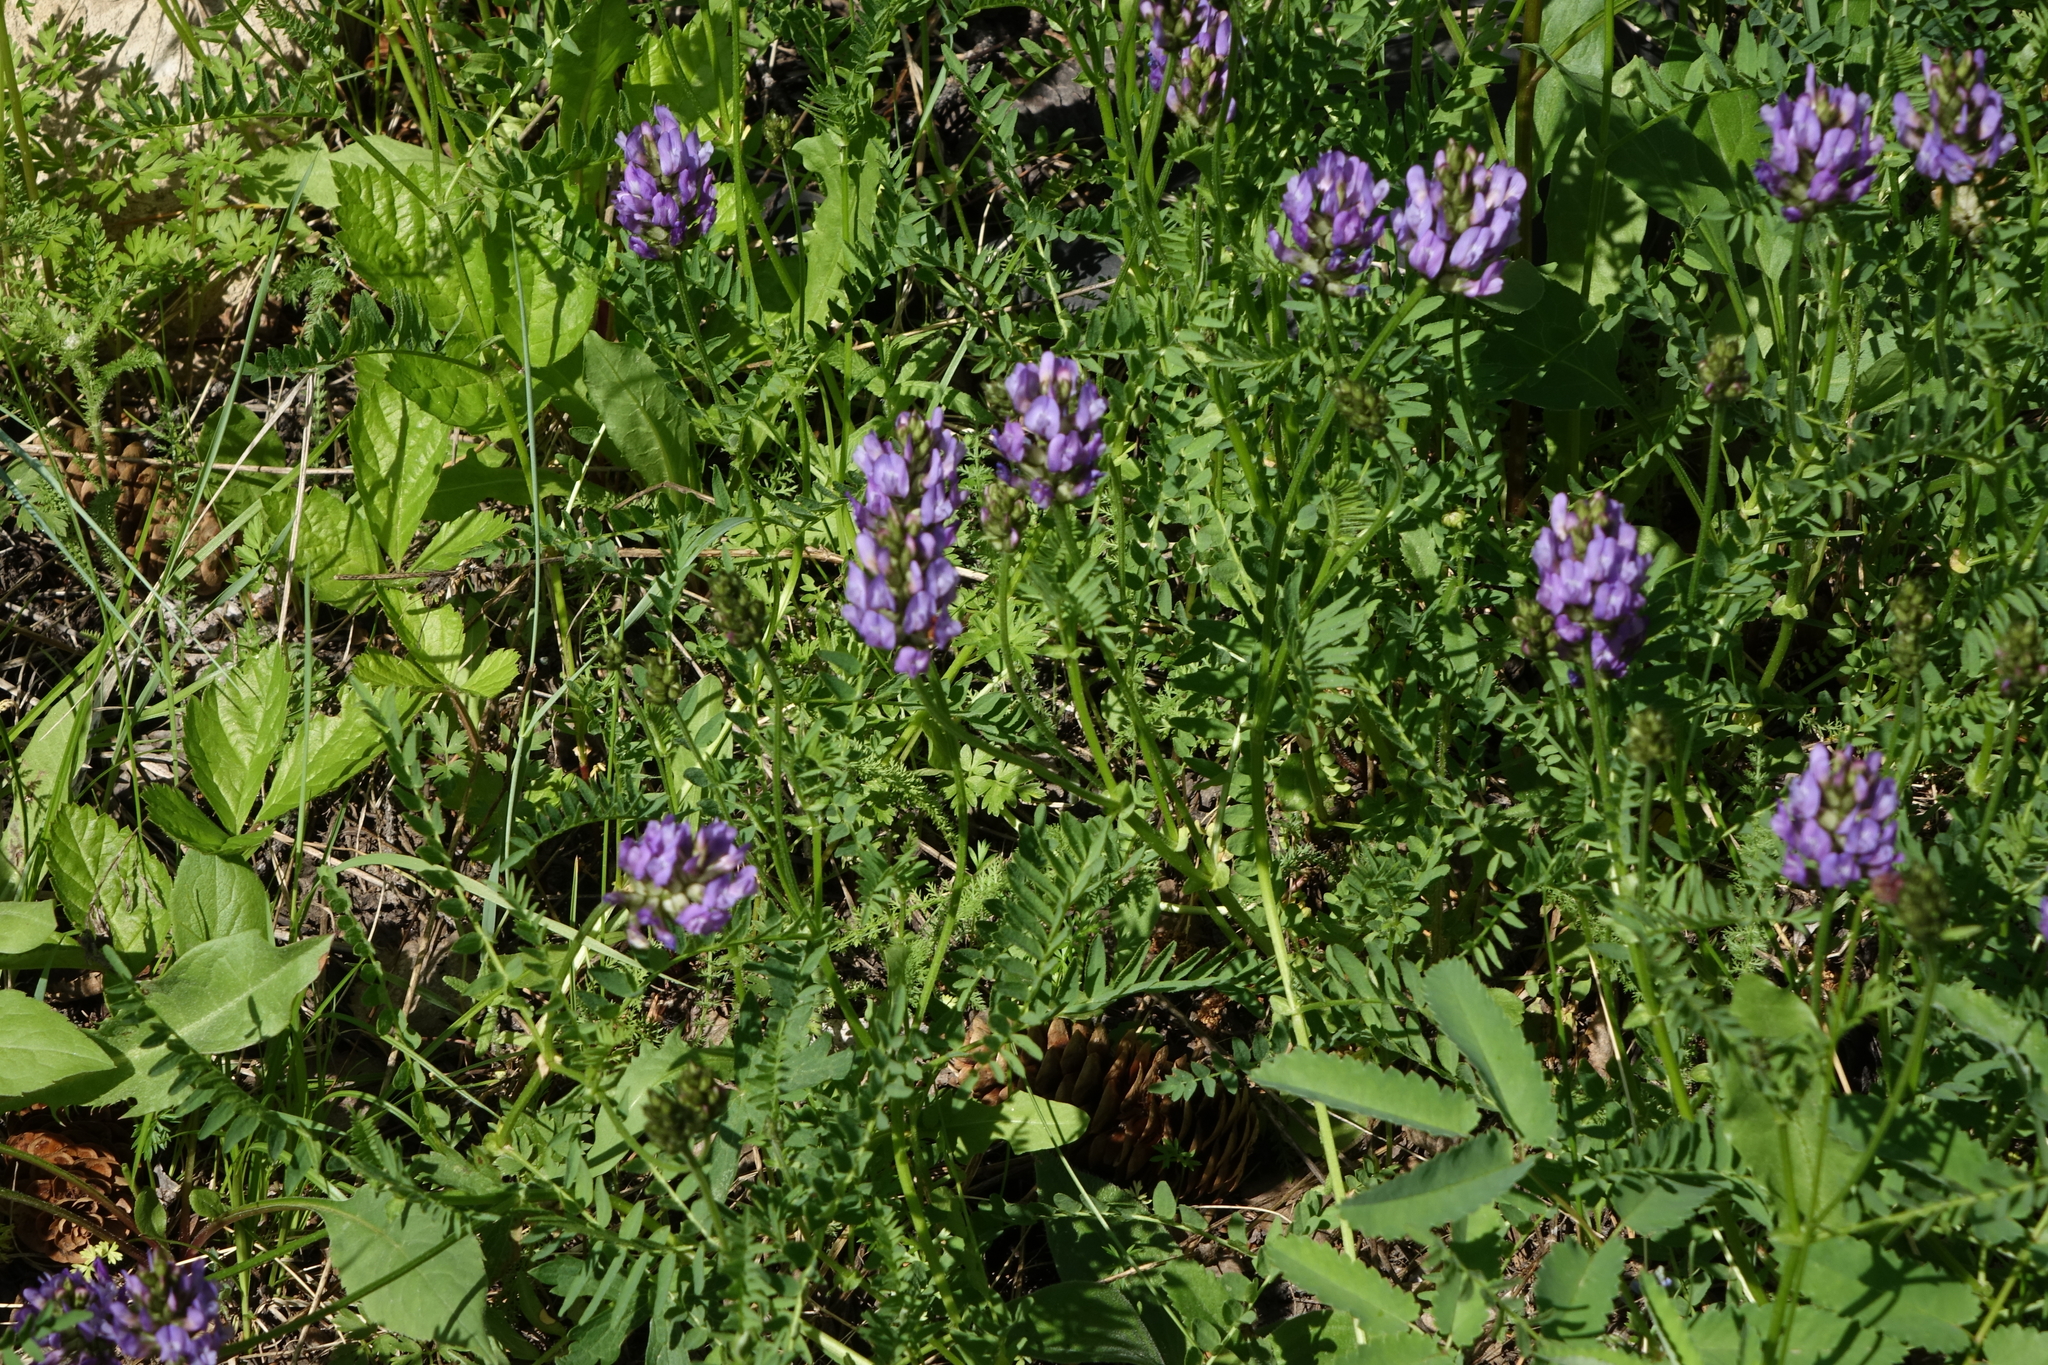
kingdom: Plantae
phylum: Tracheophyta
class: Magnoliopsida
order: Fabales
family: Fabaceae
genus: Astragalus
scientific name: Astragalus danicus
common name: Purple milk-vetch
